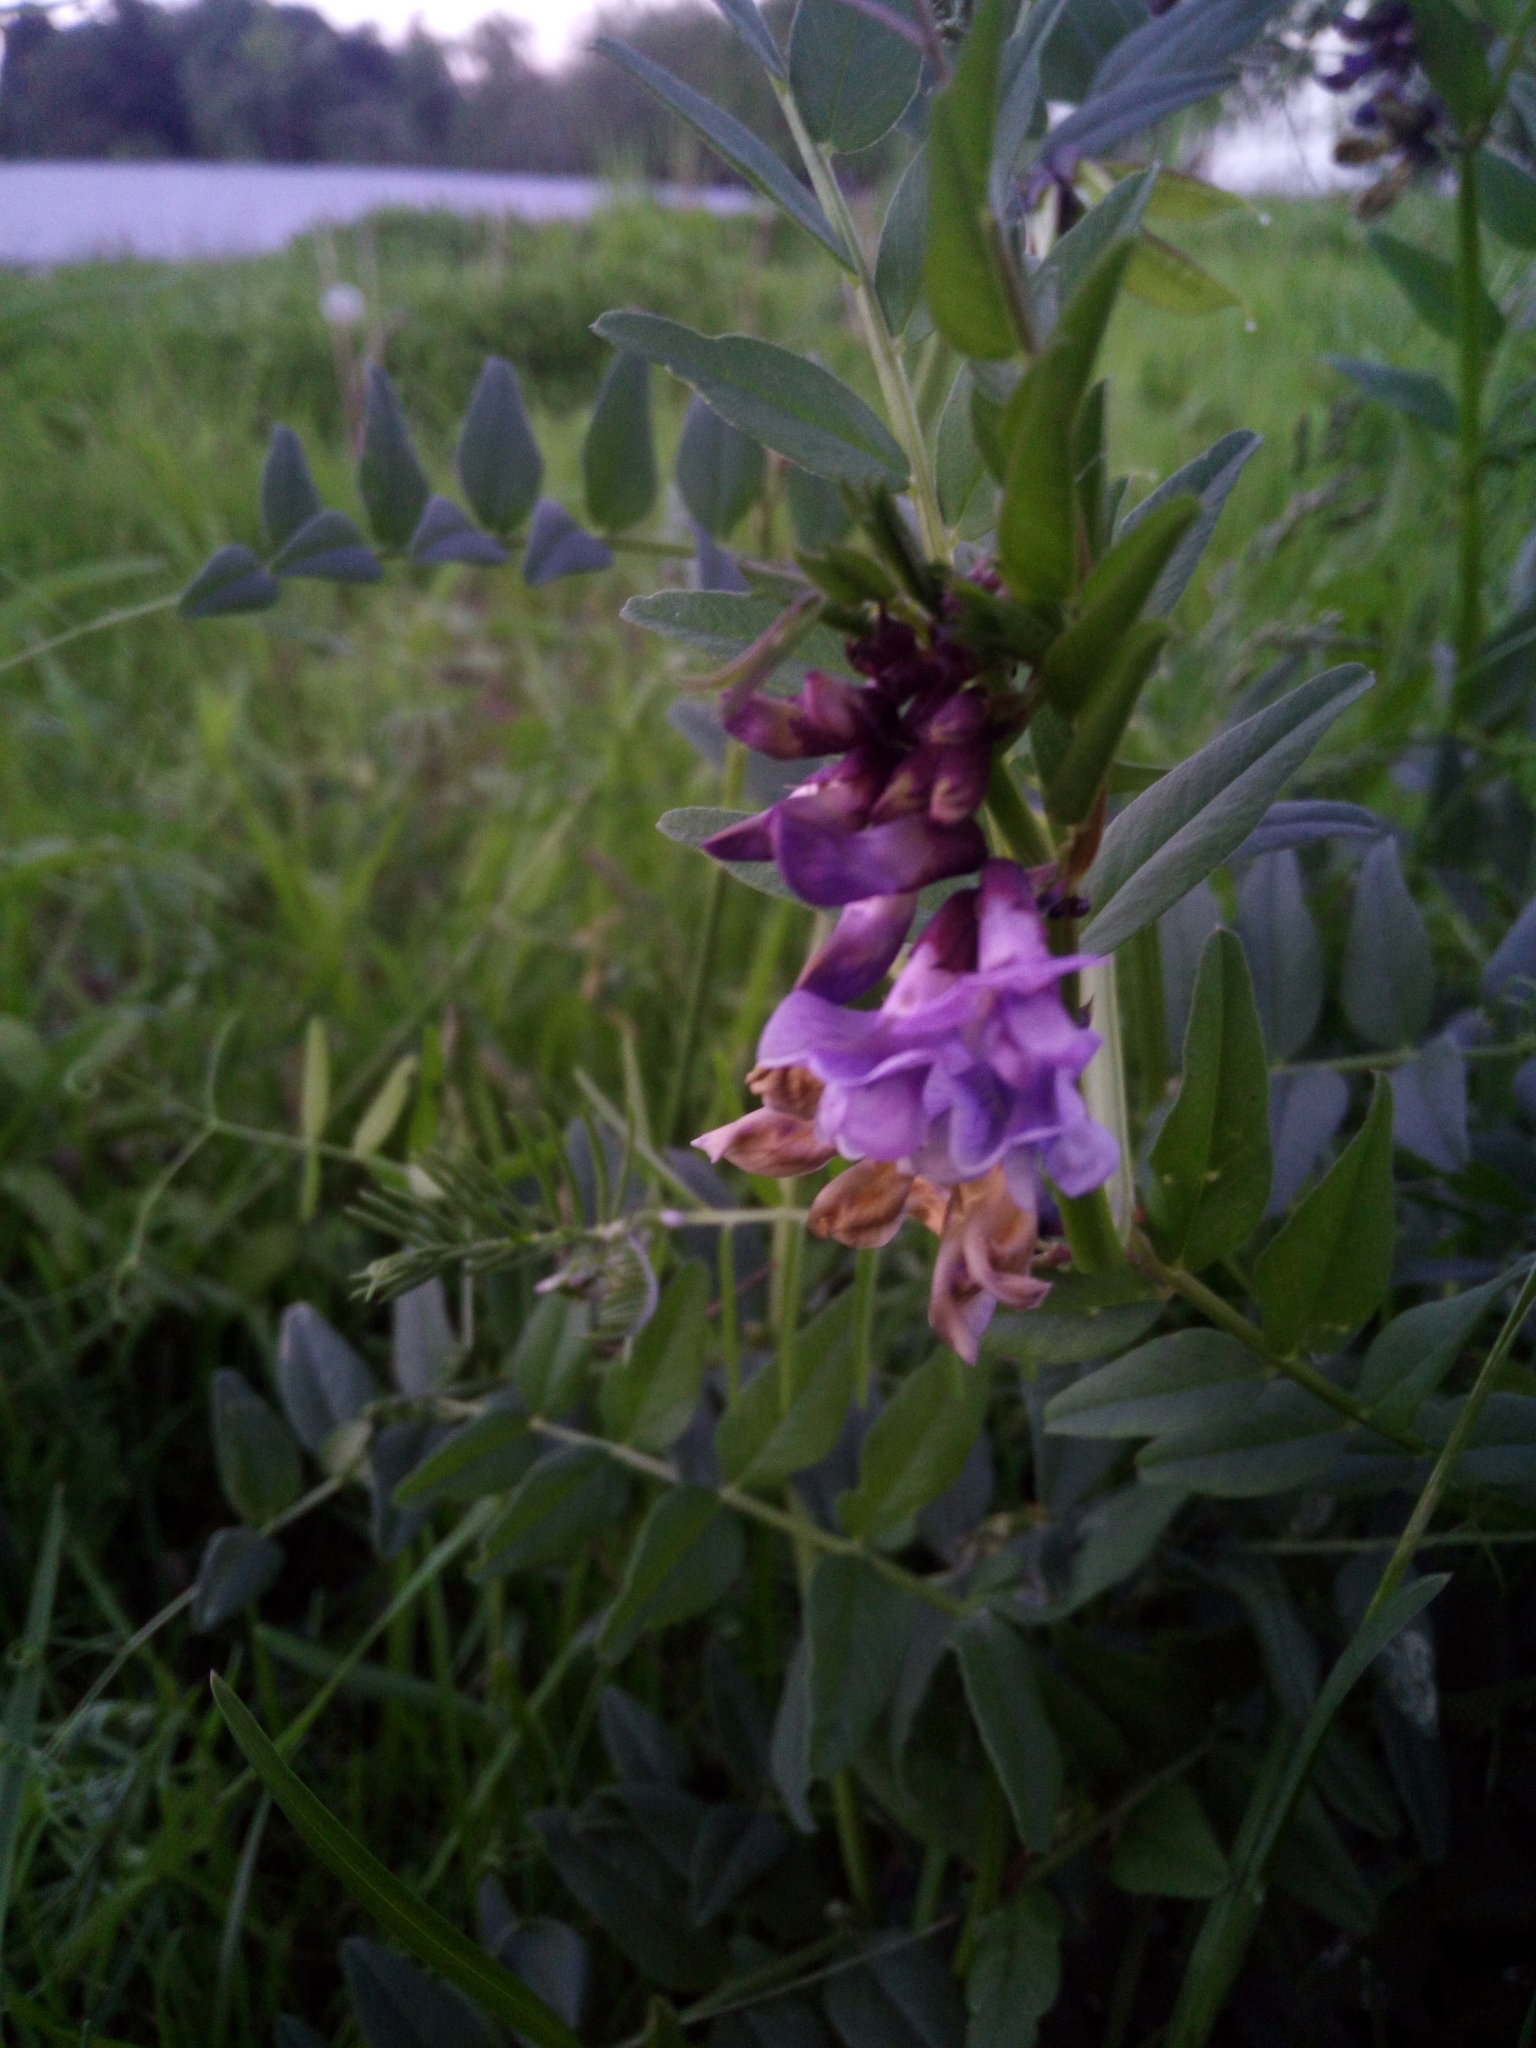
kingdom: Plantae
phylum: Tracheophyta
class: Magnoliopsida
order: Fabales
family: Fabaceae
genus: Vicia
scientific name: Vicia sepium
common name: Bush vetch
